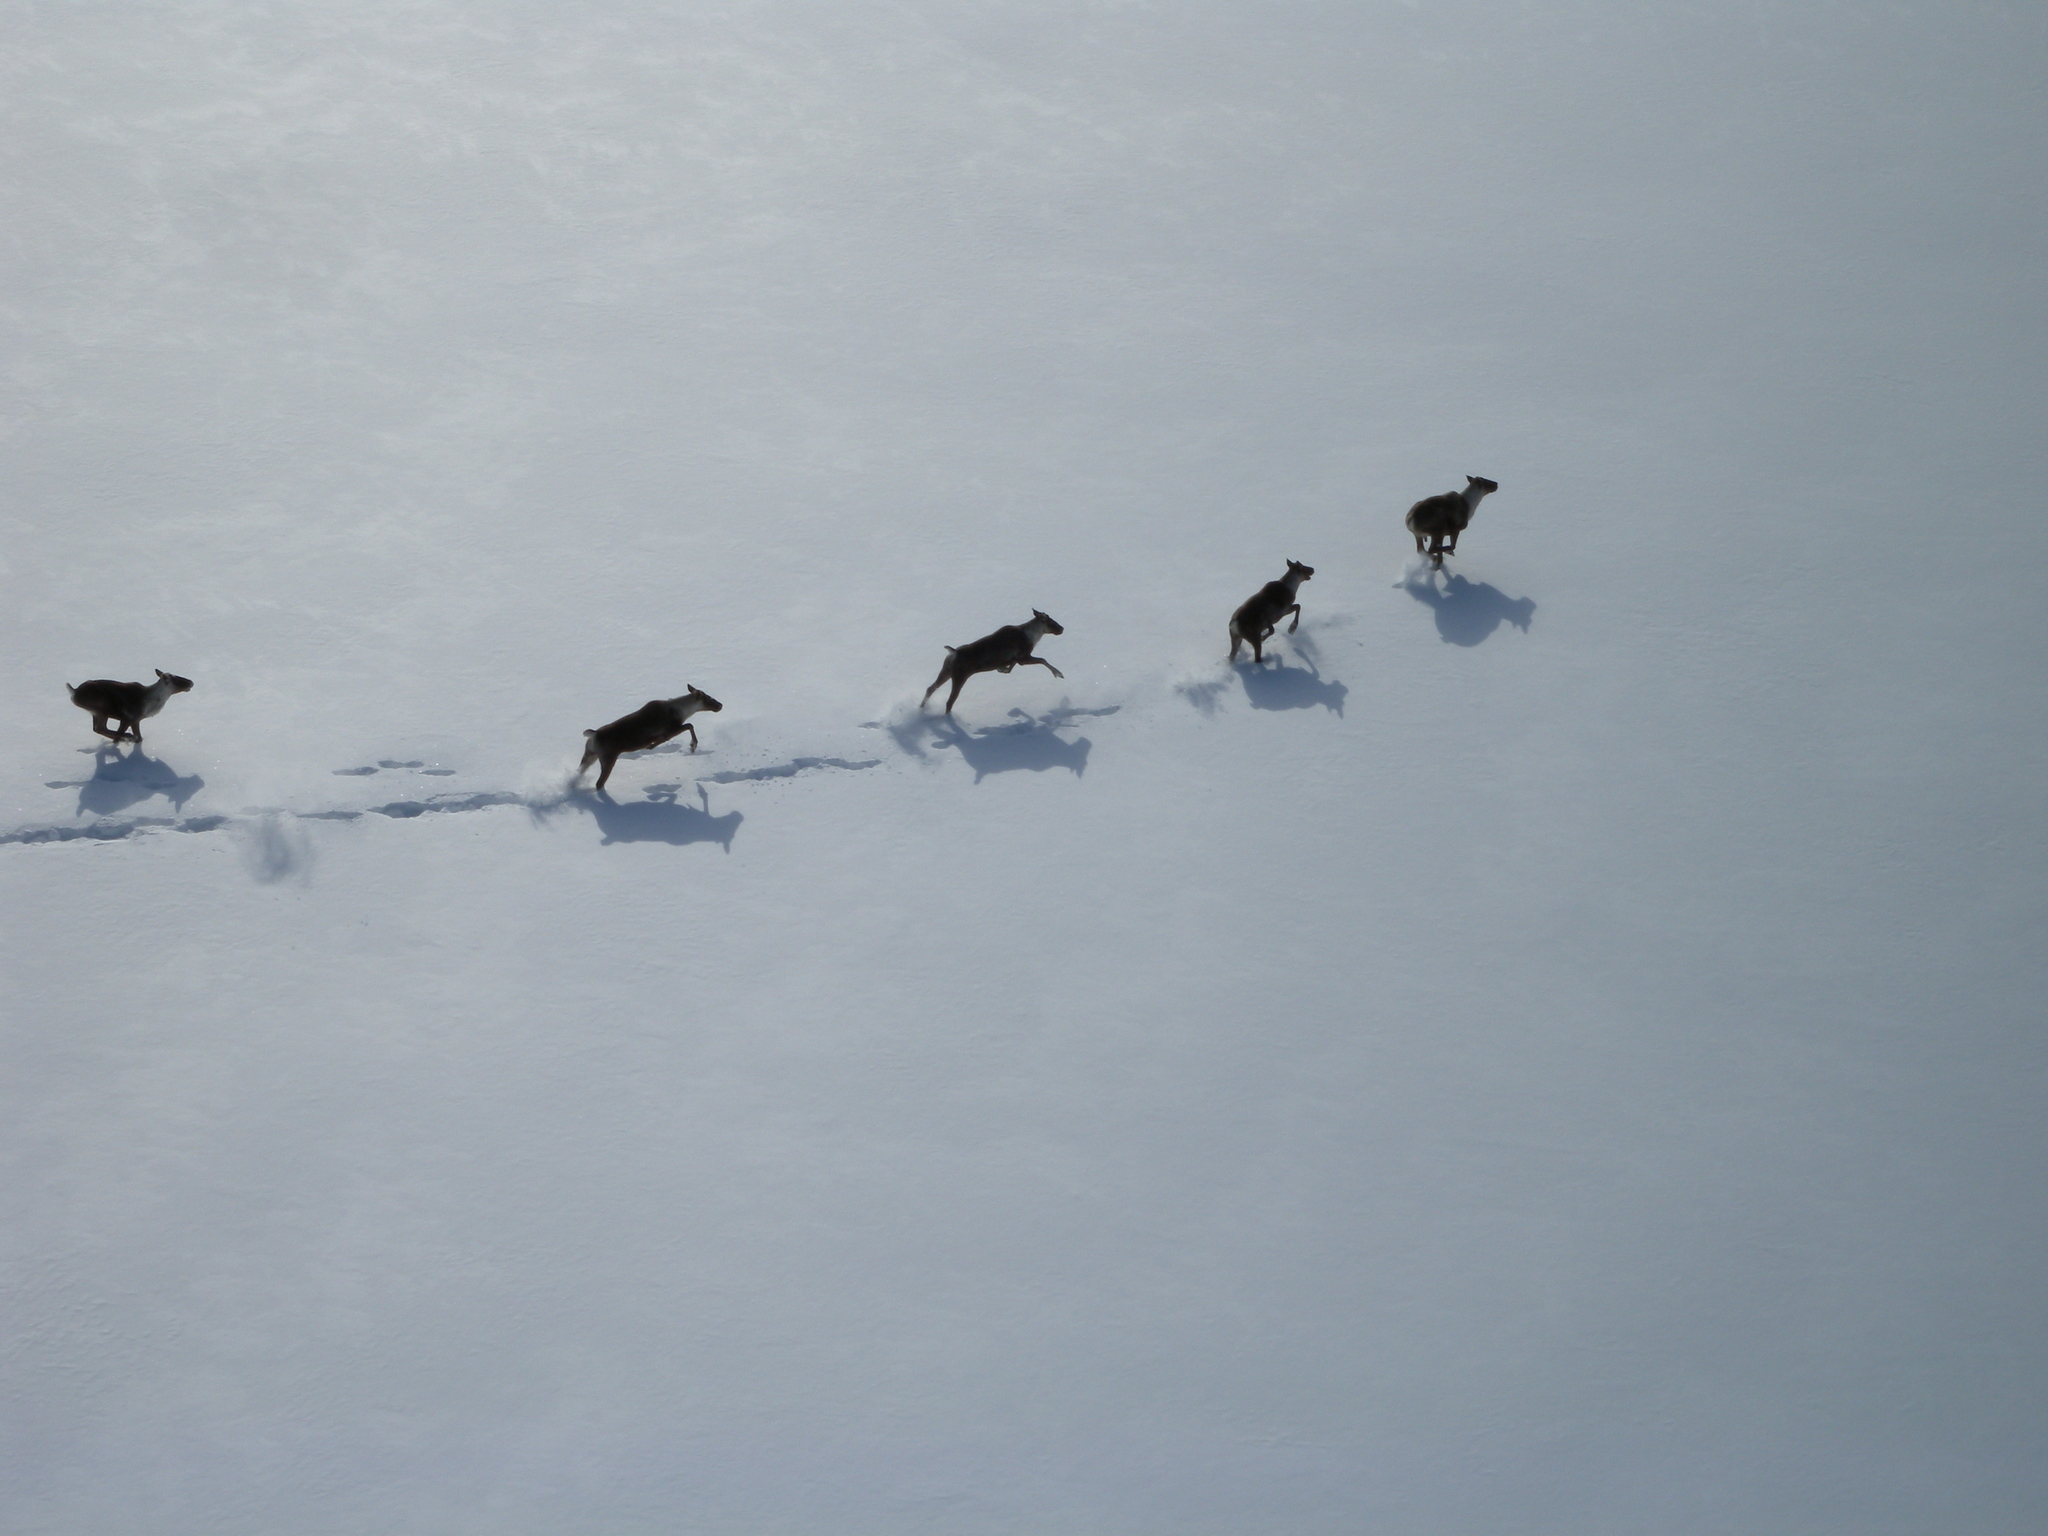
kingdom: Animalia
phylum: Chordata
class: Mammalia
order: Artiodactyla
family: Cervidae
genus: Rangifer
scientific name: Rangifer tarandus
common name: Reindeer
